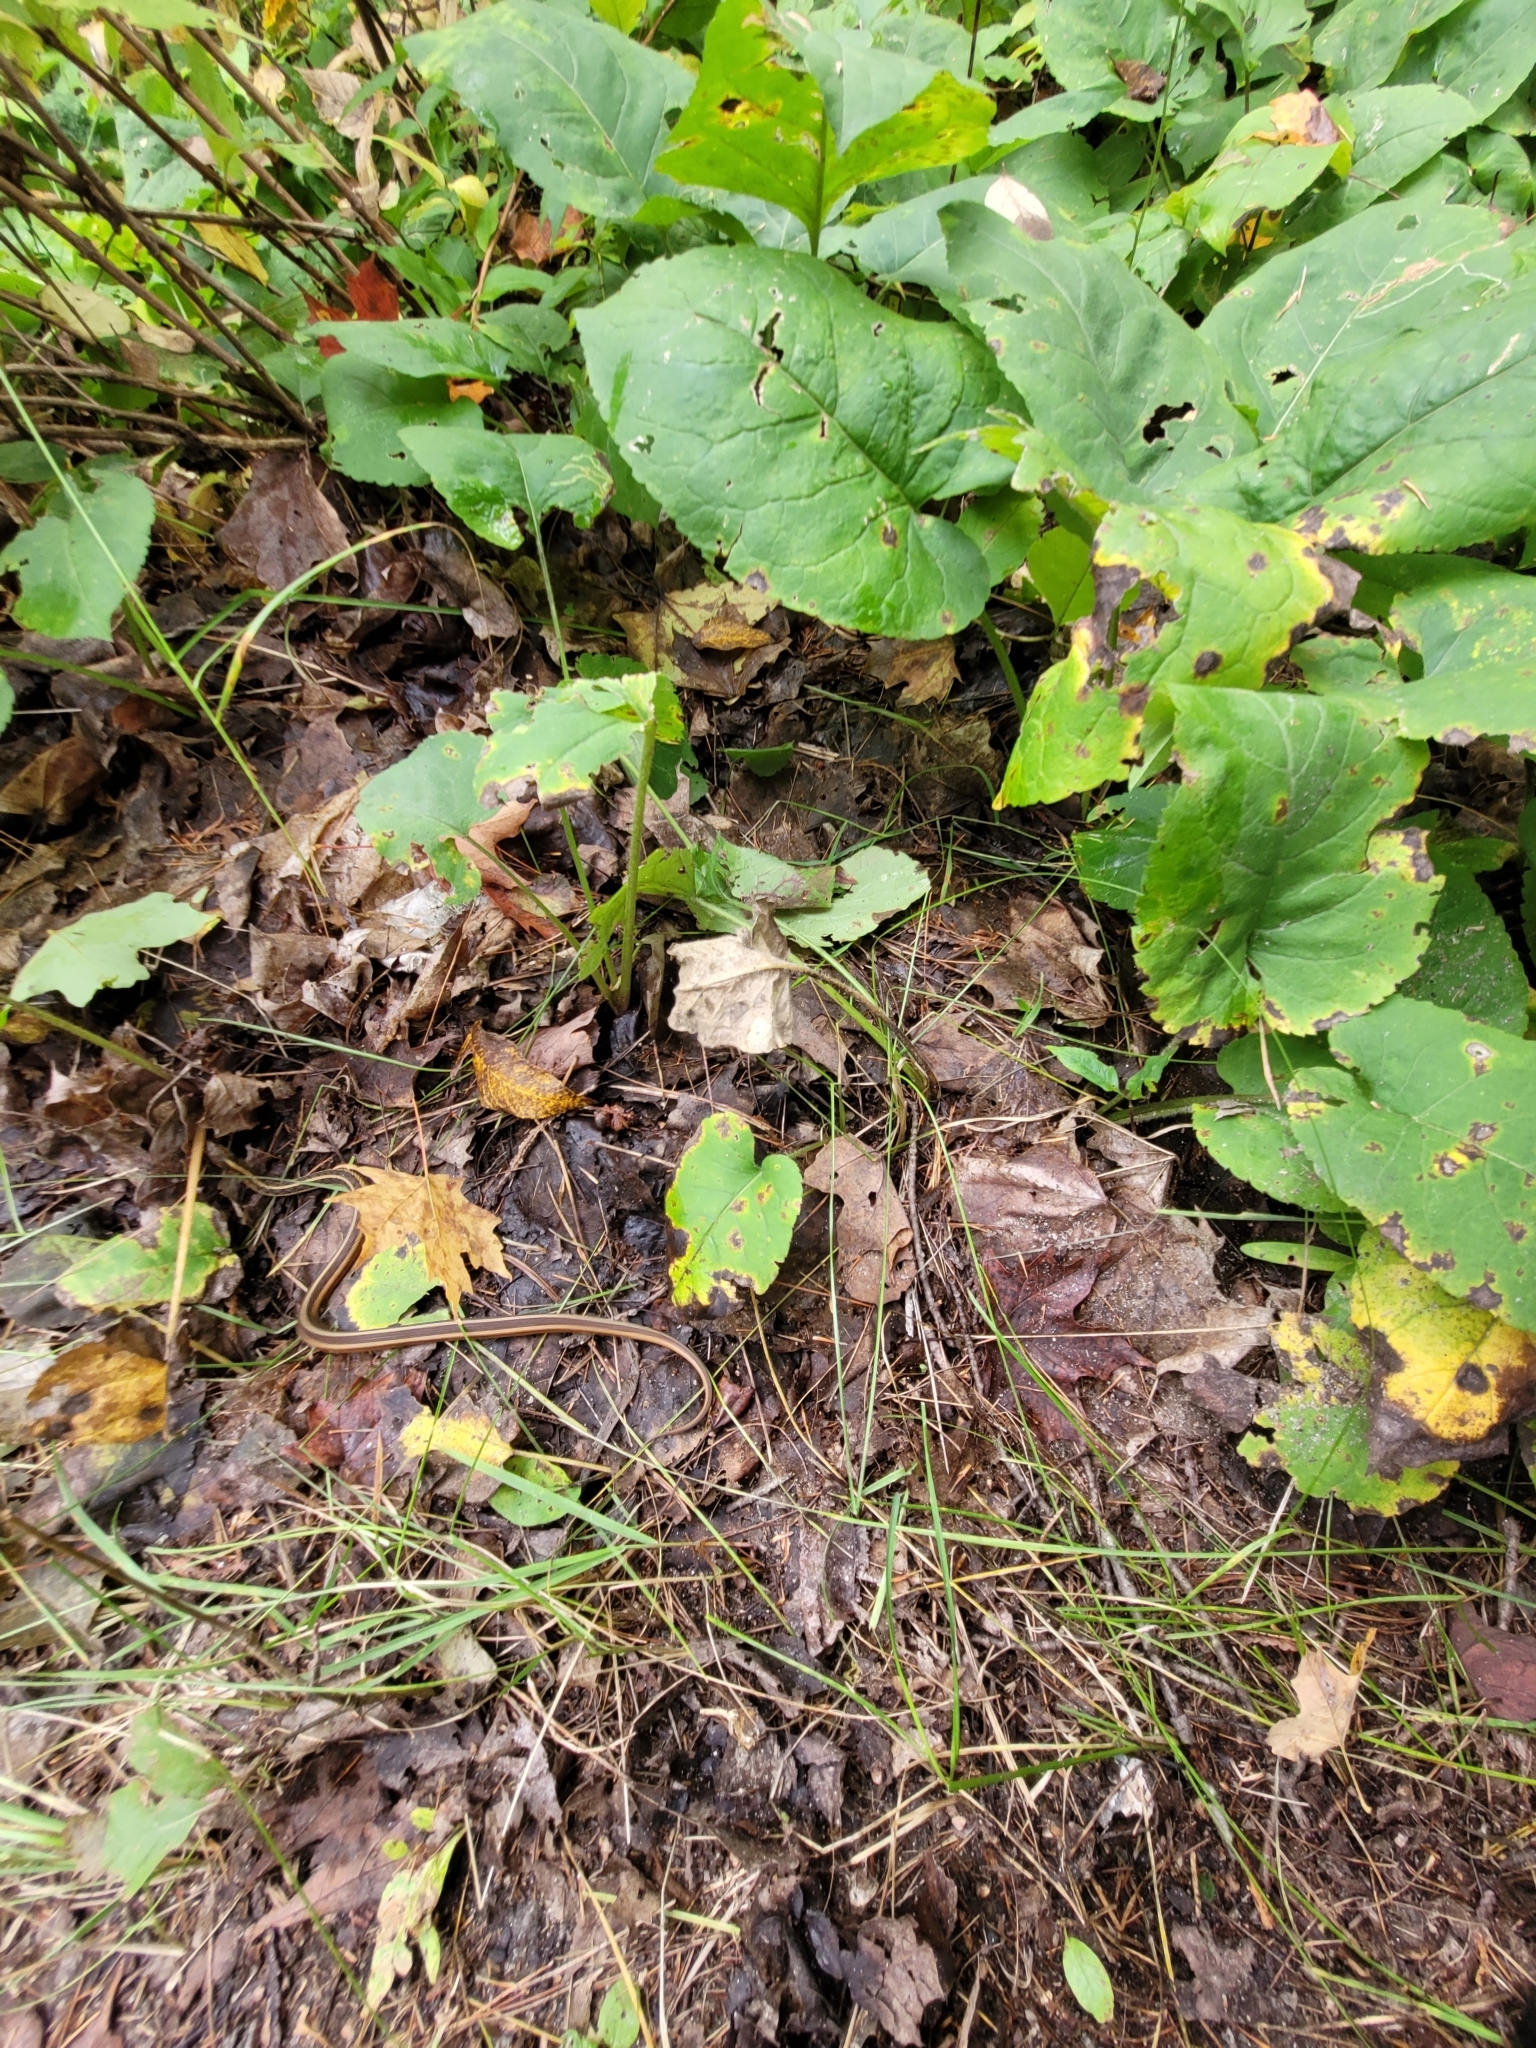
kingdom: Animalia
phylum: Chordata
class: Squamata
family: Colubridae
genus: Thamnophis
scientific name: Thamnophis sirtalis
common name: Common garter snake
